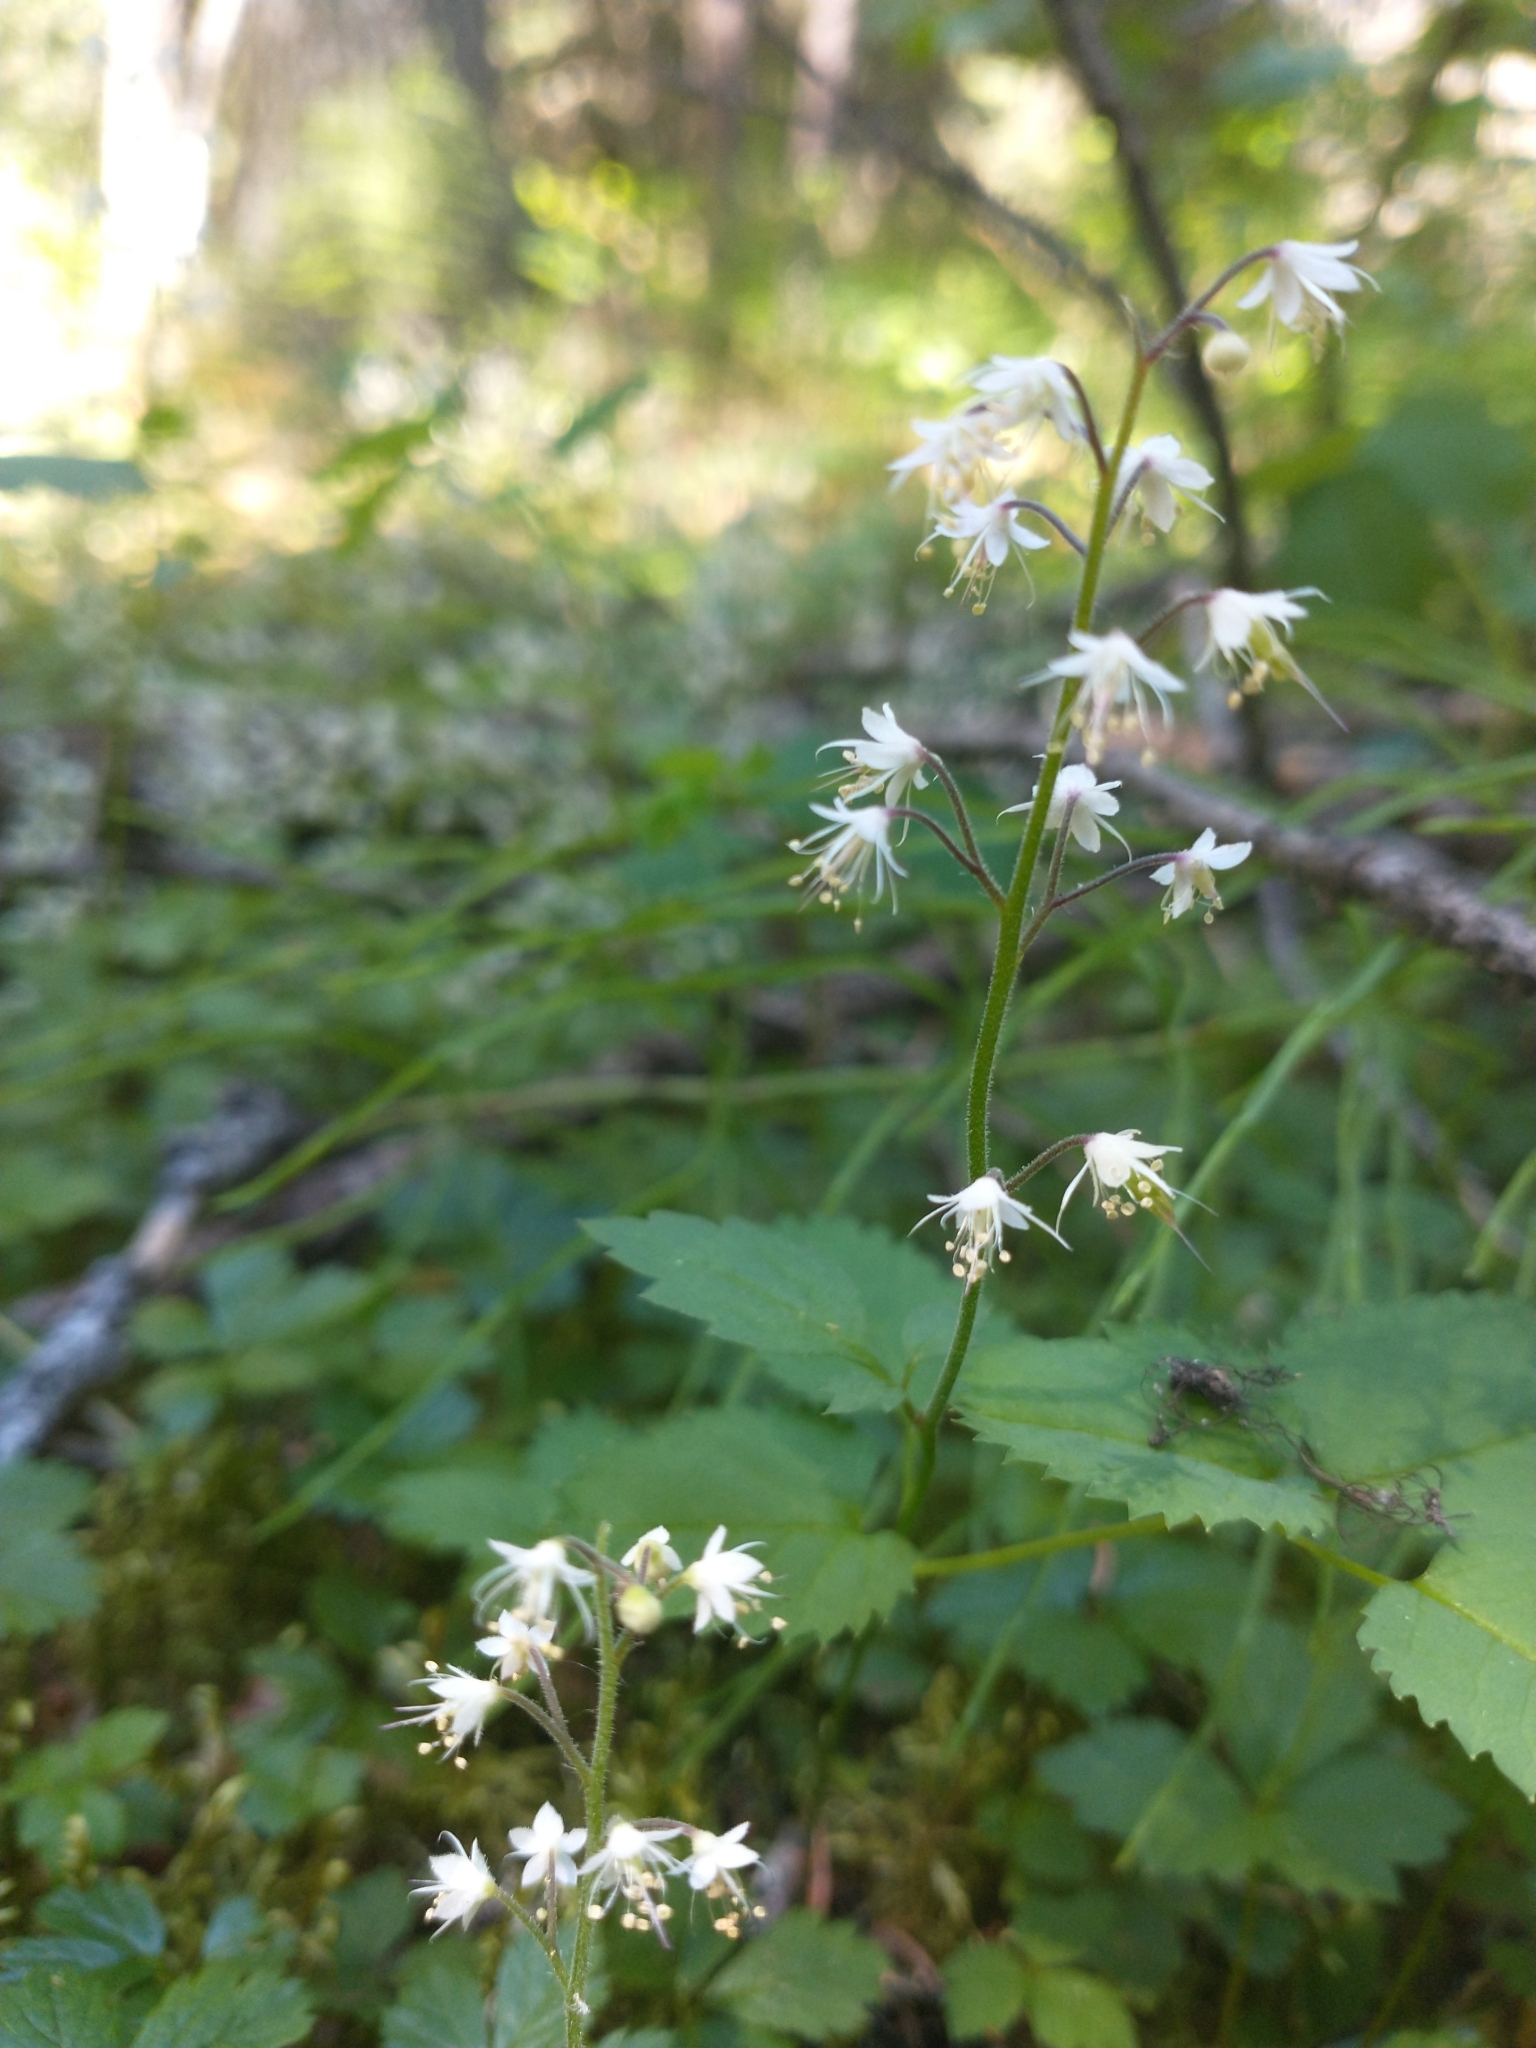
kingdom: Plantae
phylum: Tracheophyta
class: Magnoliopsida
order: Saxifragales
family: Saxifragaceae
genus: Tiarella
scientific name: Tiarella trifoliata
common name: Sugar-scoop
